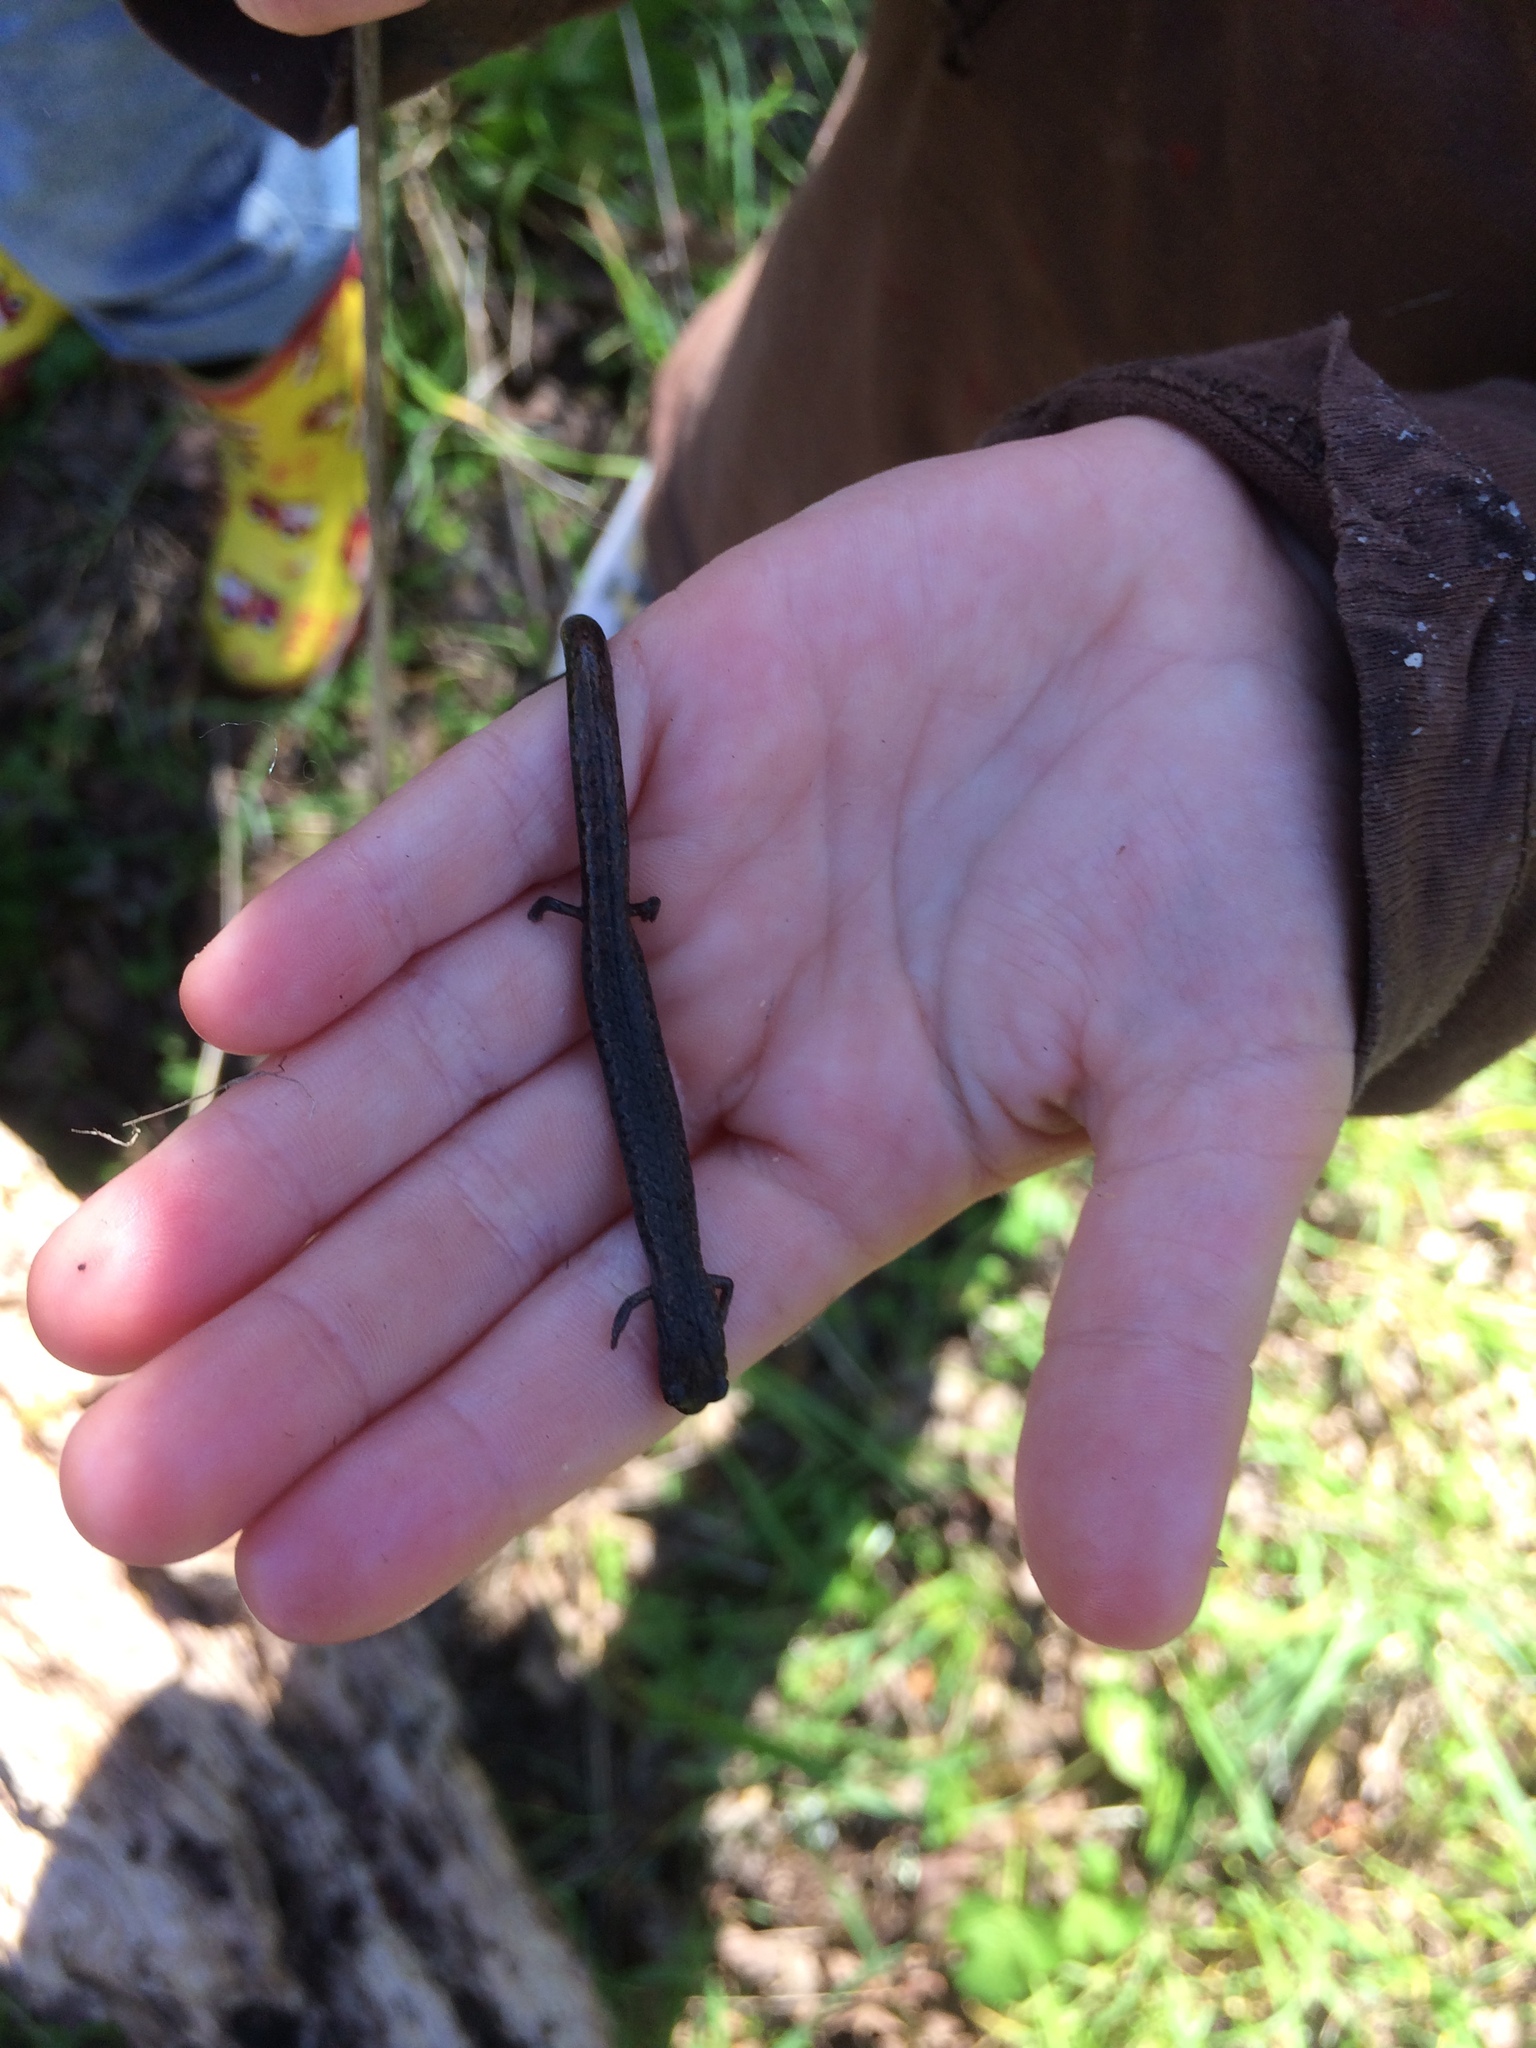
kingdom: Animalia
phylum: Chordata
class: Amphibia
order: Caudata
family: Plethodontidae
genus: Batrachoseps
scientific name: Batrachoseps attenuatus
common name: California slender salamander
